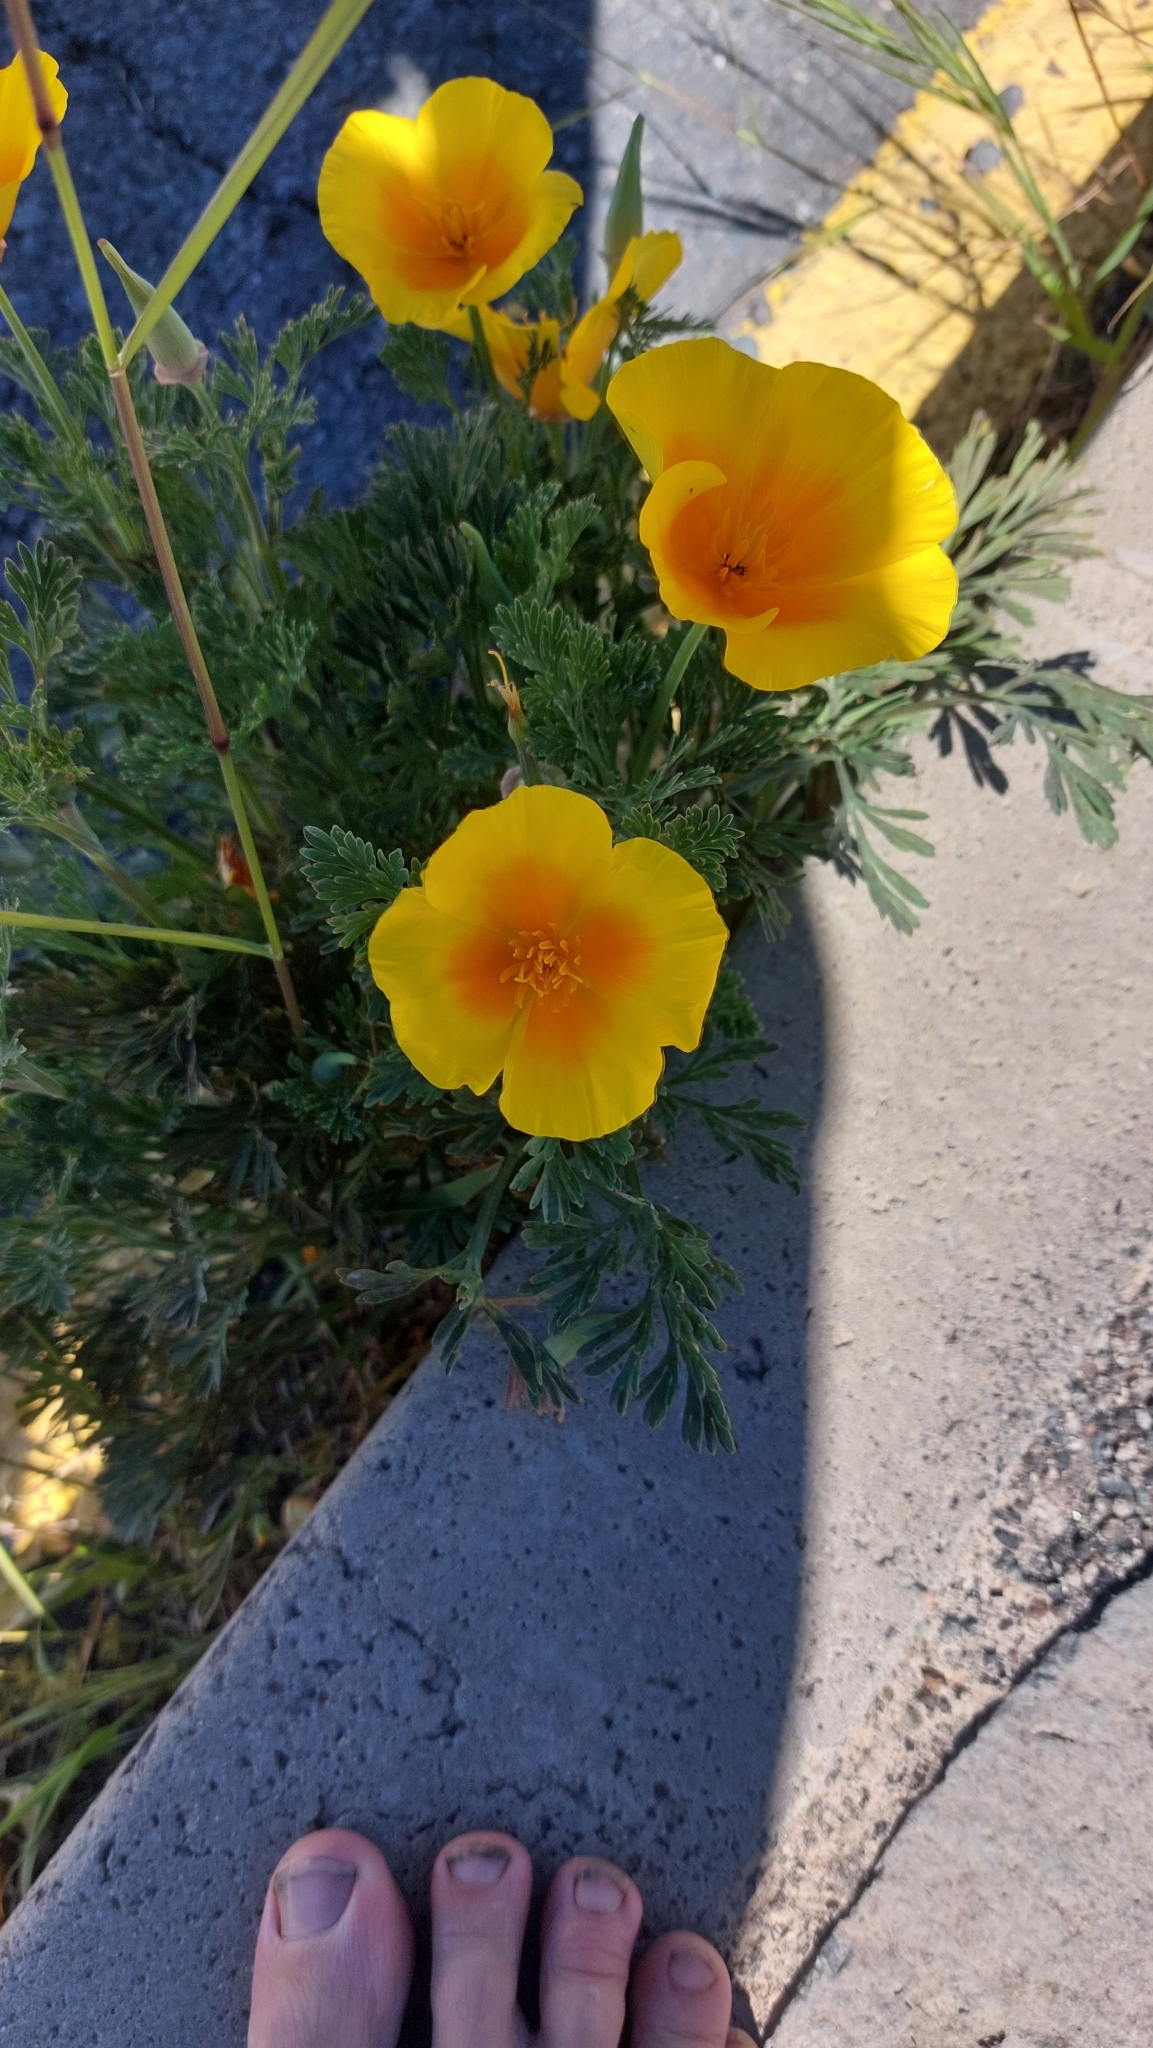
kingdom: Plantae
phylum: Tracheophyta
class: Magnoliopsida
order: Ranunculales
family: Papaveraceae
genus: Eschscholzia
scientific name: Eschscholzia californica
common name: California poppy
